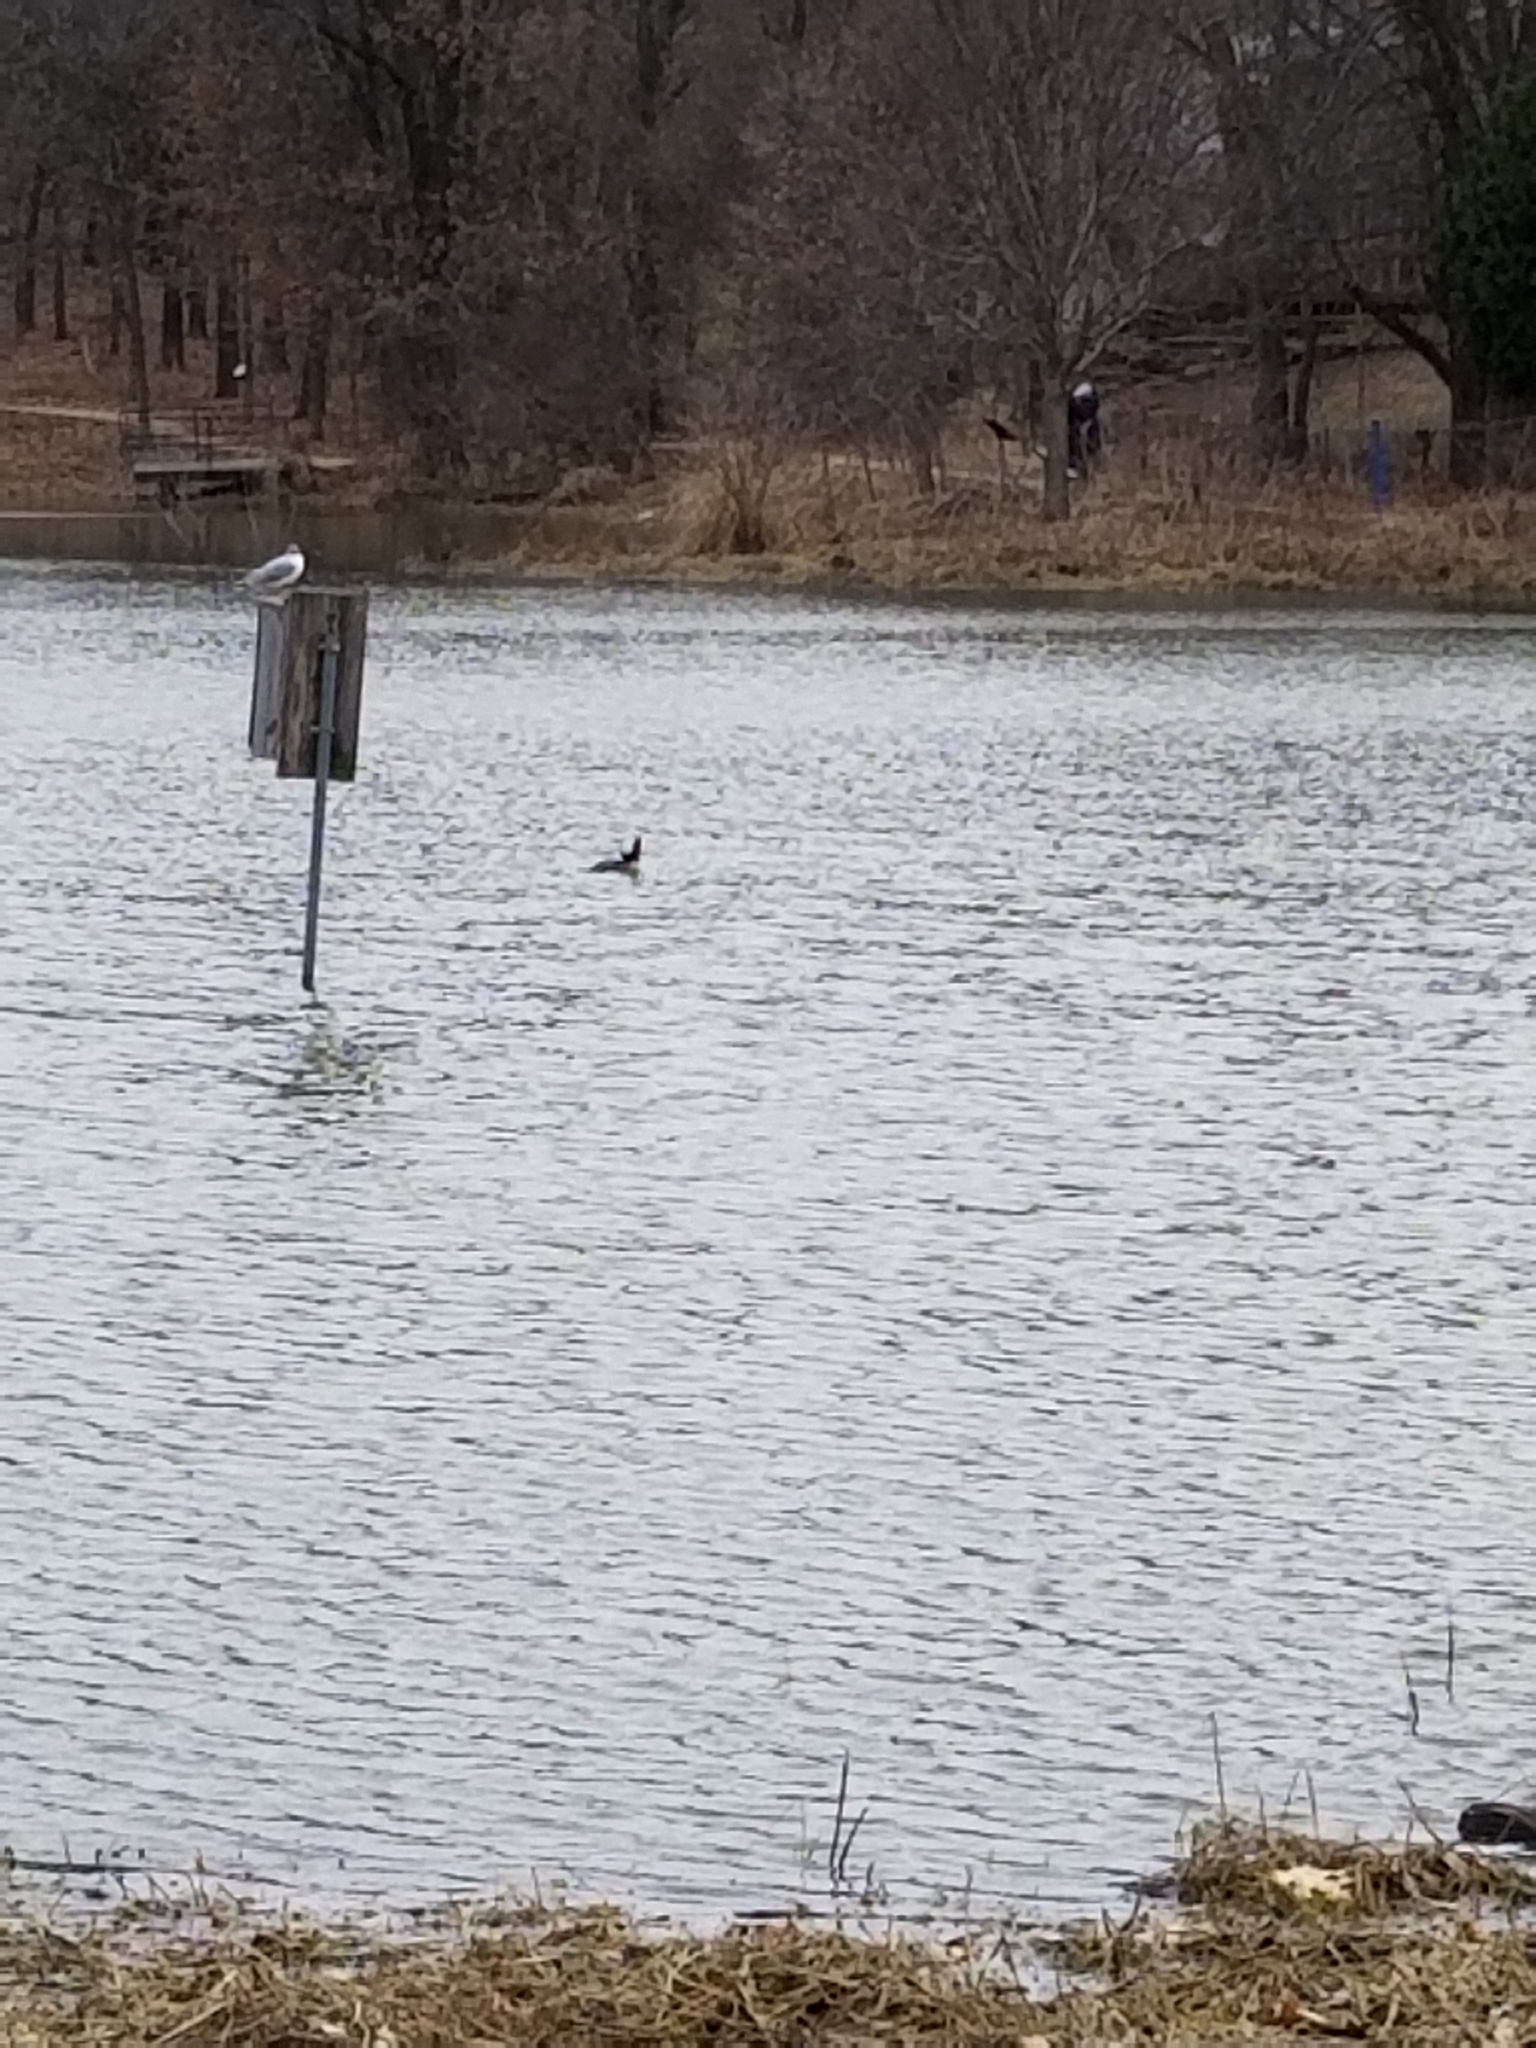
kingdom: Animalia
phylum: Chordata
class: Aves
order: Charadriiformes
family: Laridae
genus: Chroicocephalus
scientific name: Chroicocephalus philadelphia
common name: Bonaparte's gull
